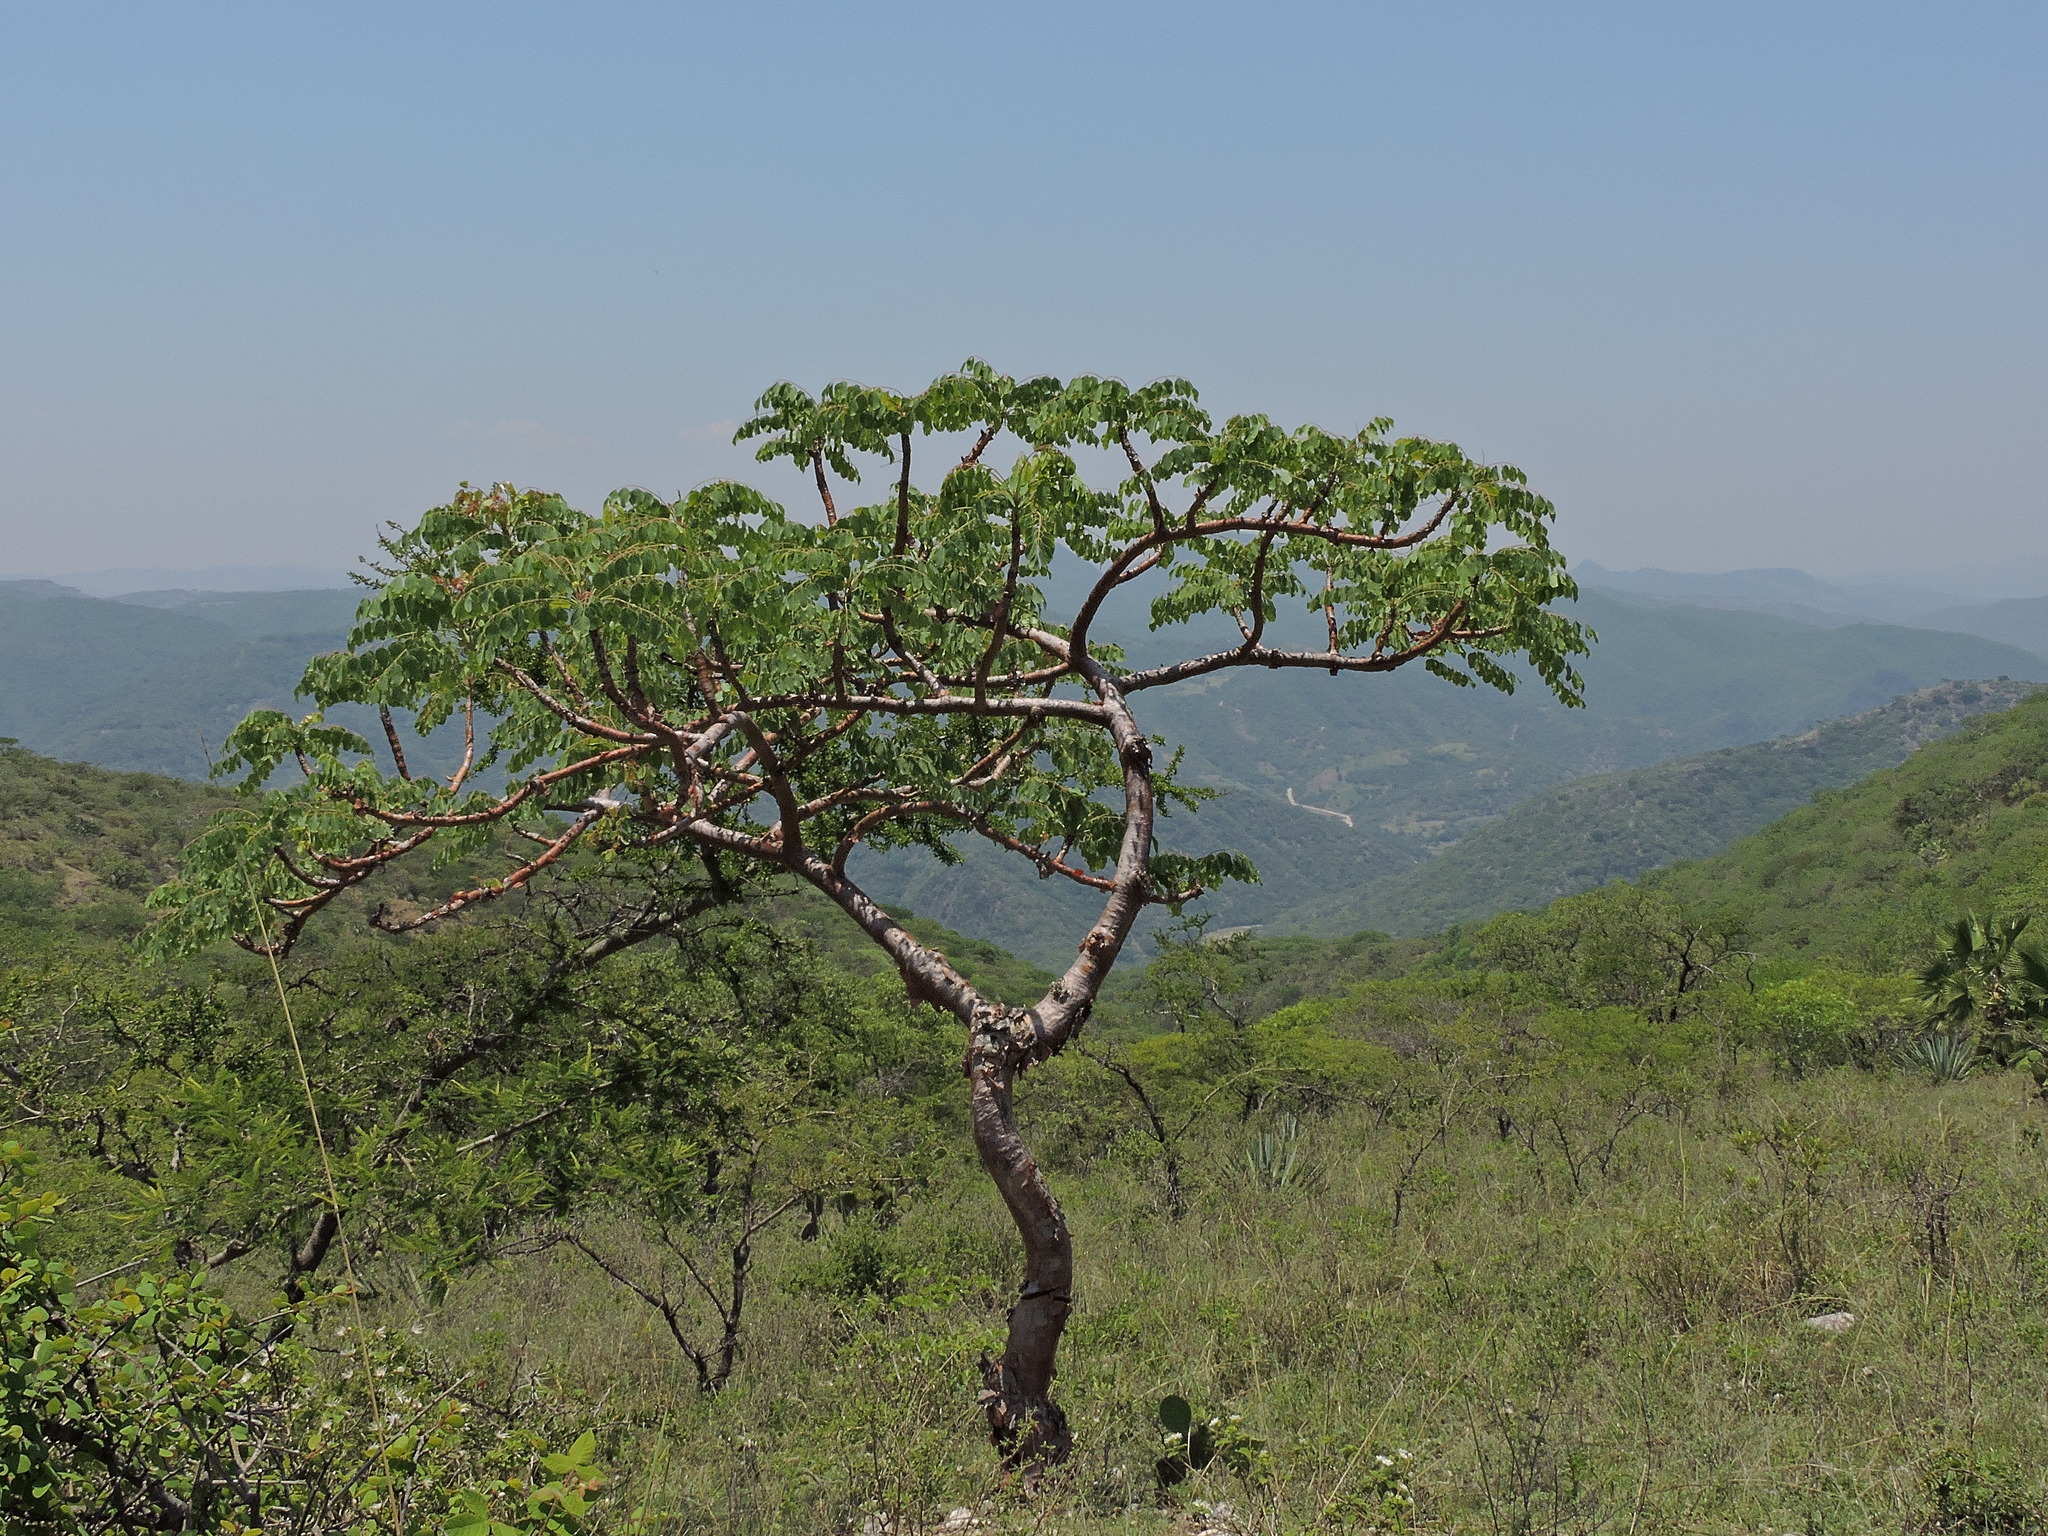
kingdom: Plantae
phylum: Tracheophyta
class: Magnoliopsida
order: Sapindales
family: Anacardiaceae
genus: Pseudosmodingium
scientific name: Pseudosmodingium perniciosum
